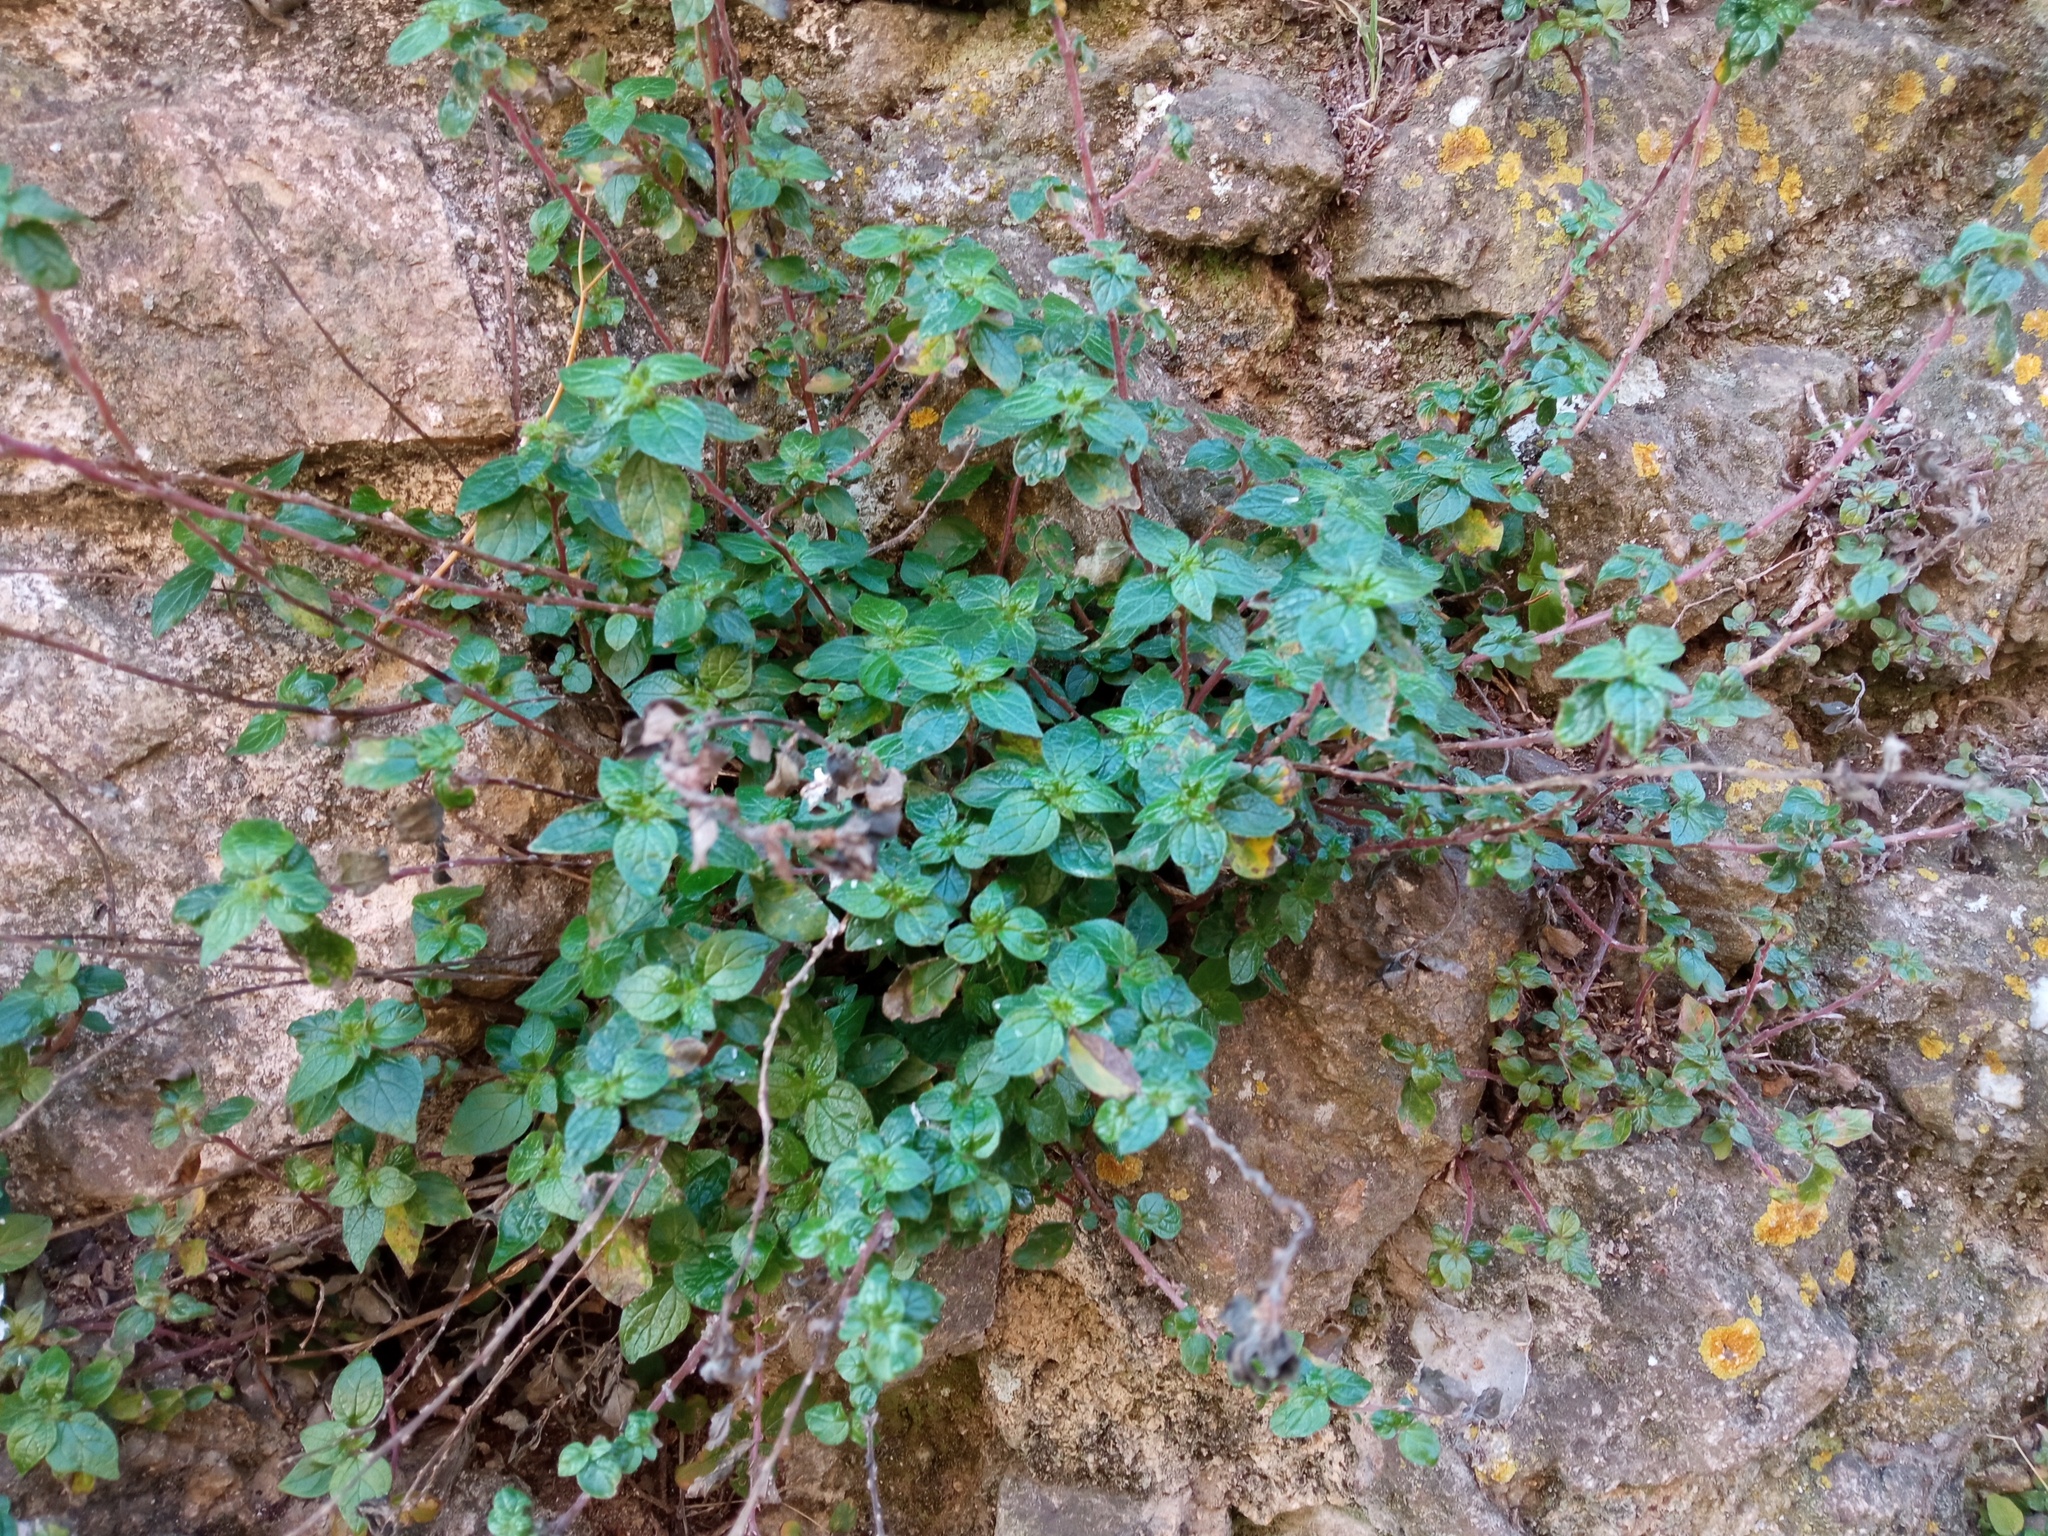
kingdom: Plantae
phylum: Tracheophyta
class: Magnoliopsida
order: Rosales
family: Urticaceae
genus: Parietaria
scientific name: Parietaria judaica
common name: Pellitory-of-the-wall
